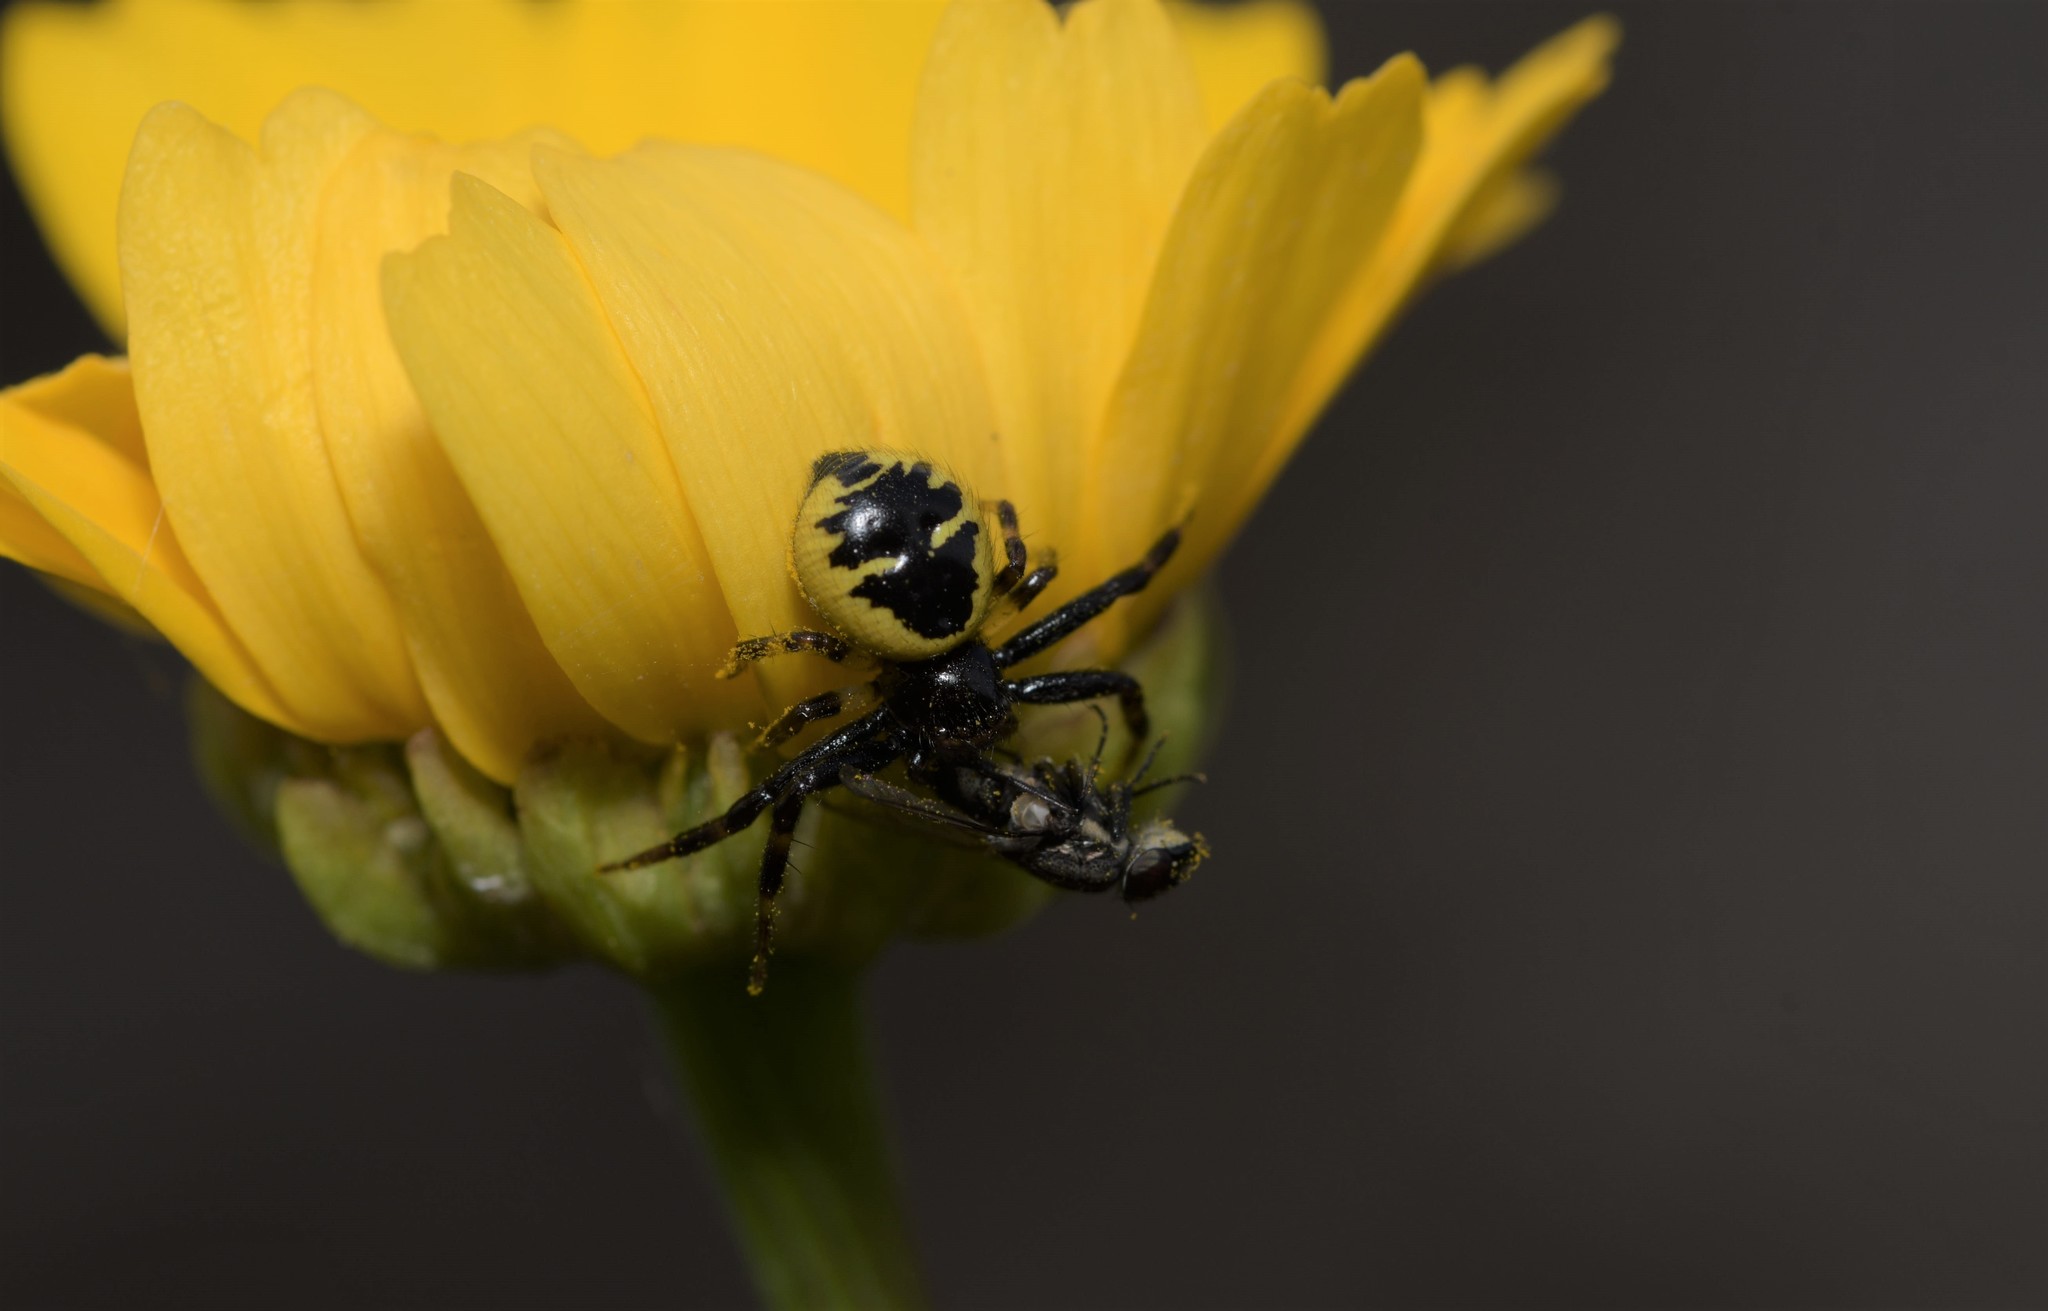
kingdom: Animalia
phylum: Arthropoda
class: Arachnida
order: Araneae
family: Thomisidae
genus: Synema
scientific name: Synema globosum
